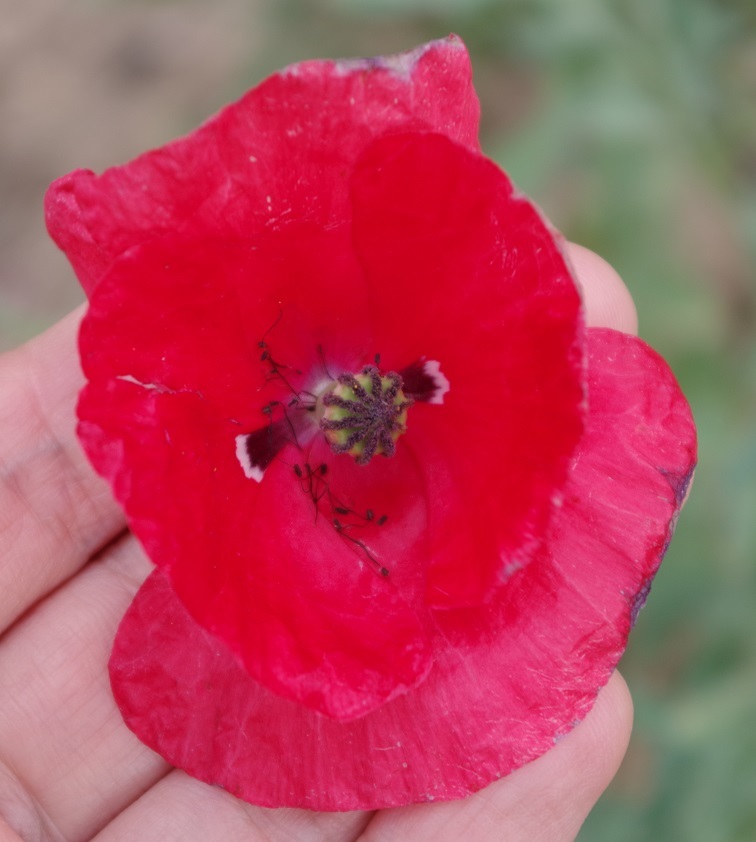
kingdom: Plantae
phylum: Tracheophyta
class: Magnoliopsida
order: Ranunculales
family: Papaveraceae
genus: Papaver
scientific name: Papaver rhoeas
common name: Corn poppy
